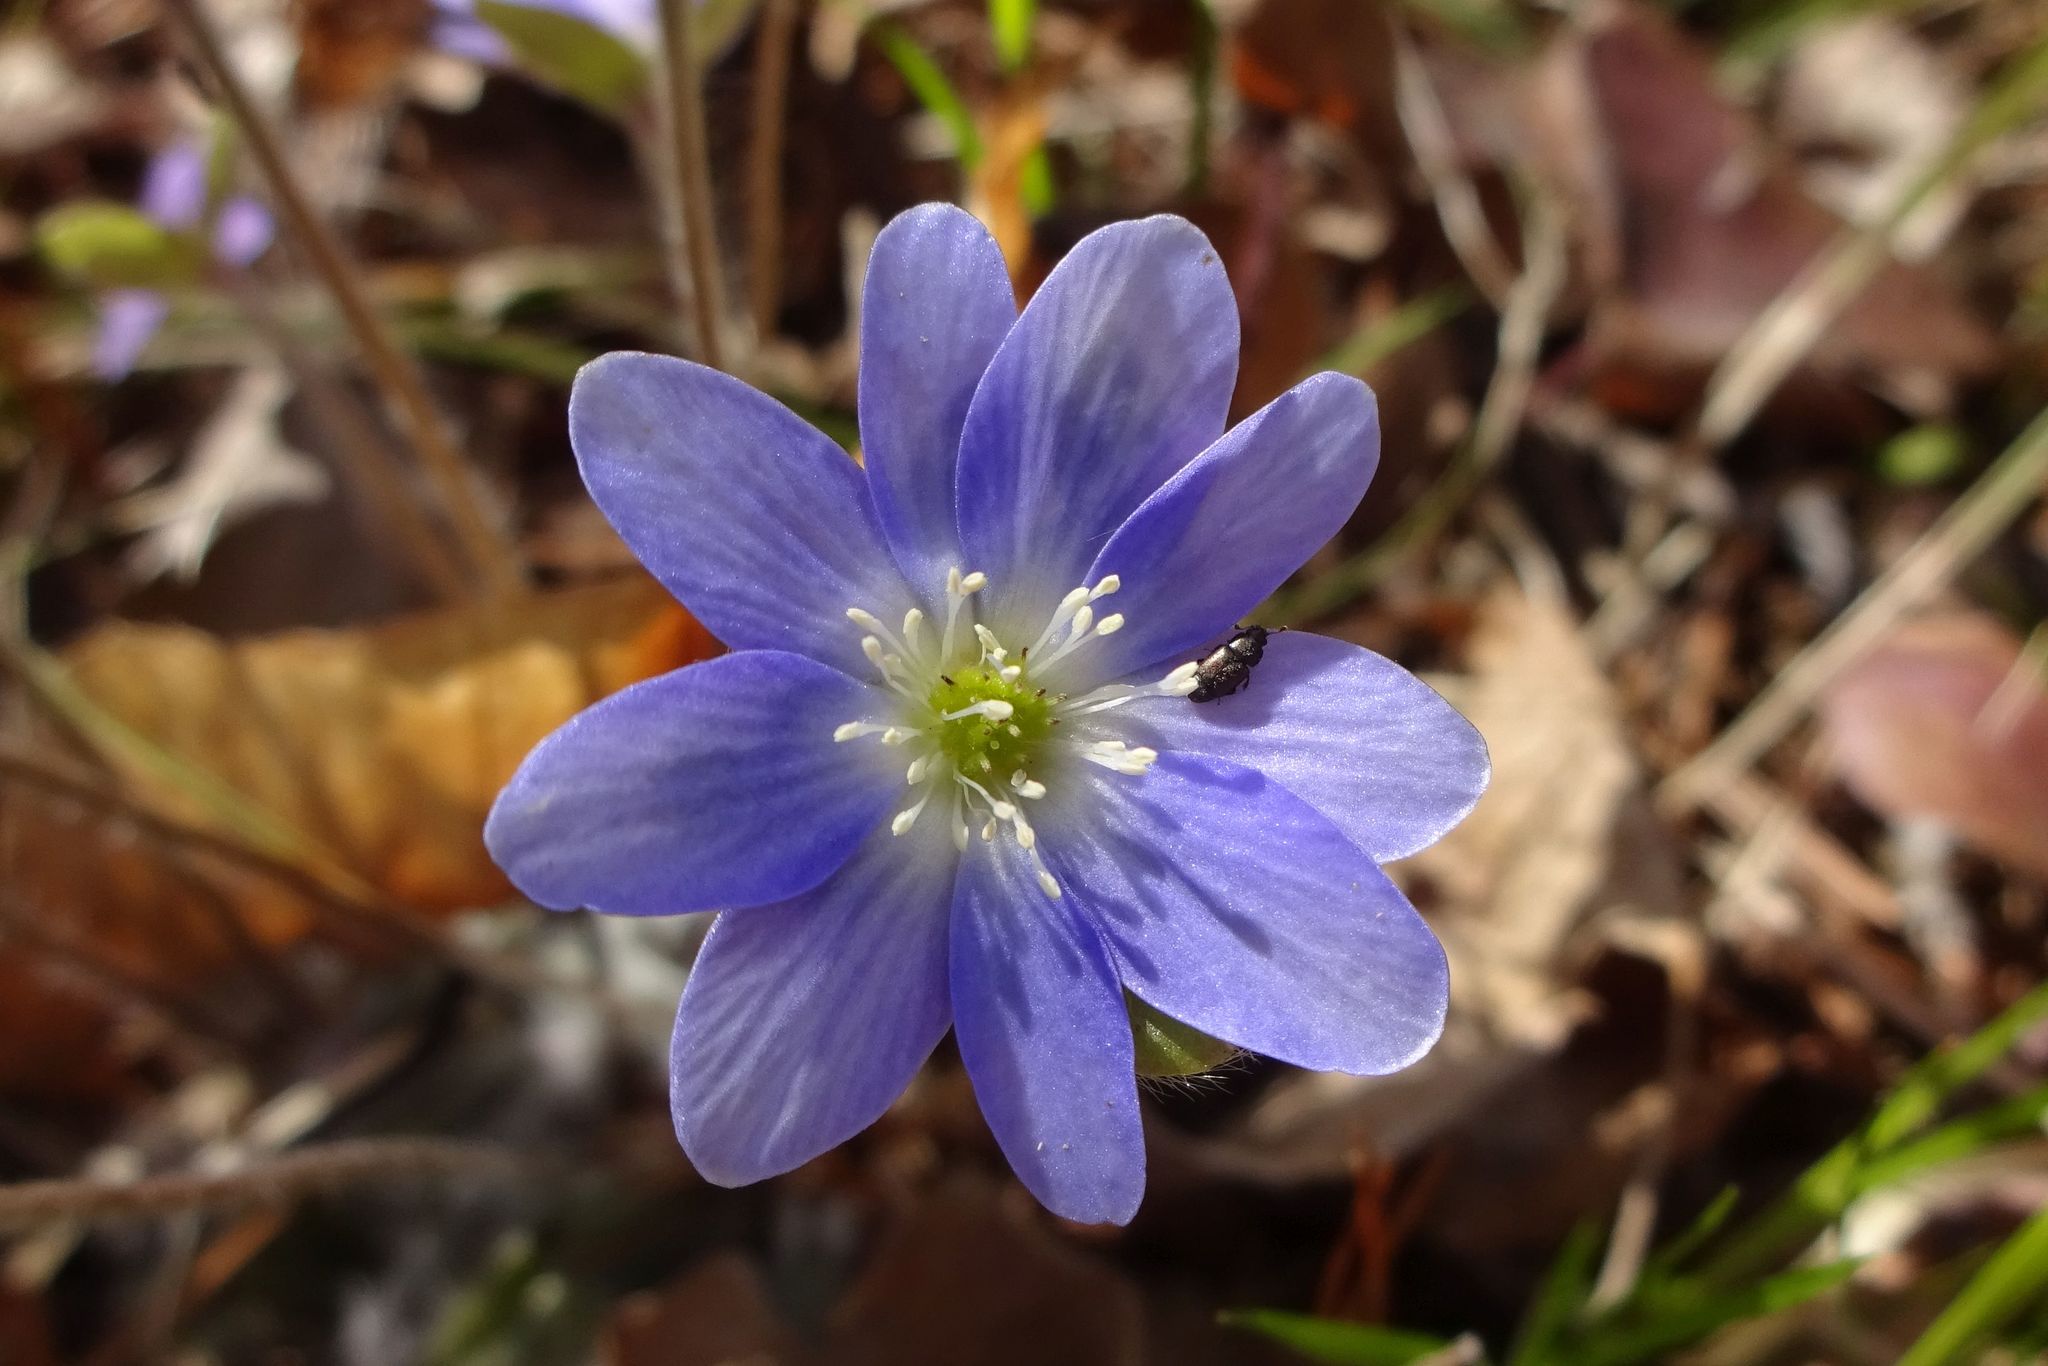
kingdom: Plantae
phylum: Tracheophyta
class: Magnoliopsida
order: Ranunculales
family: Ranunculaceae
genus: Hepatica
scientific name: Hepatica americana
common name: American hepatica
